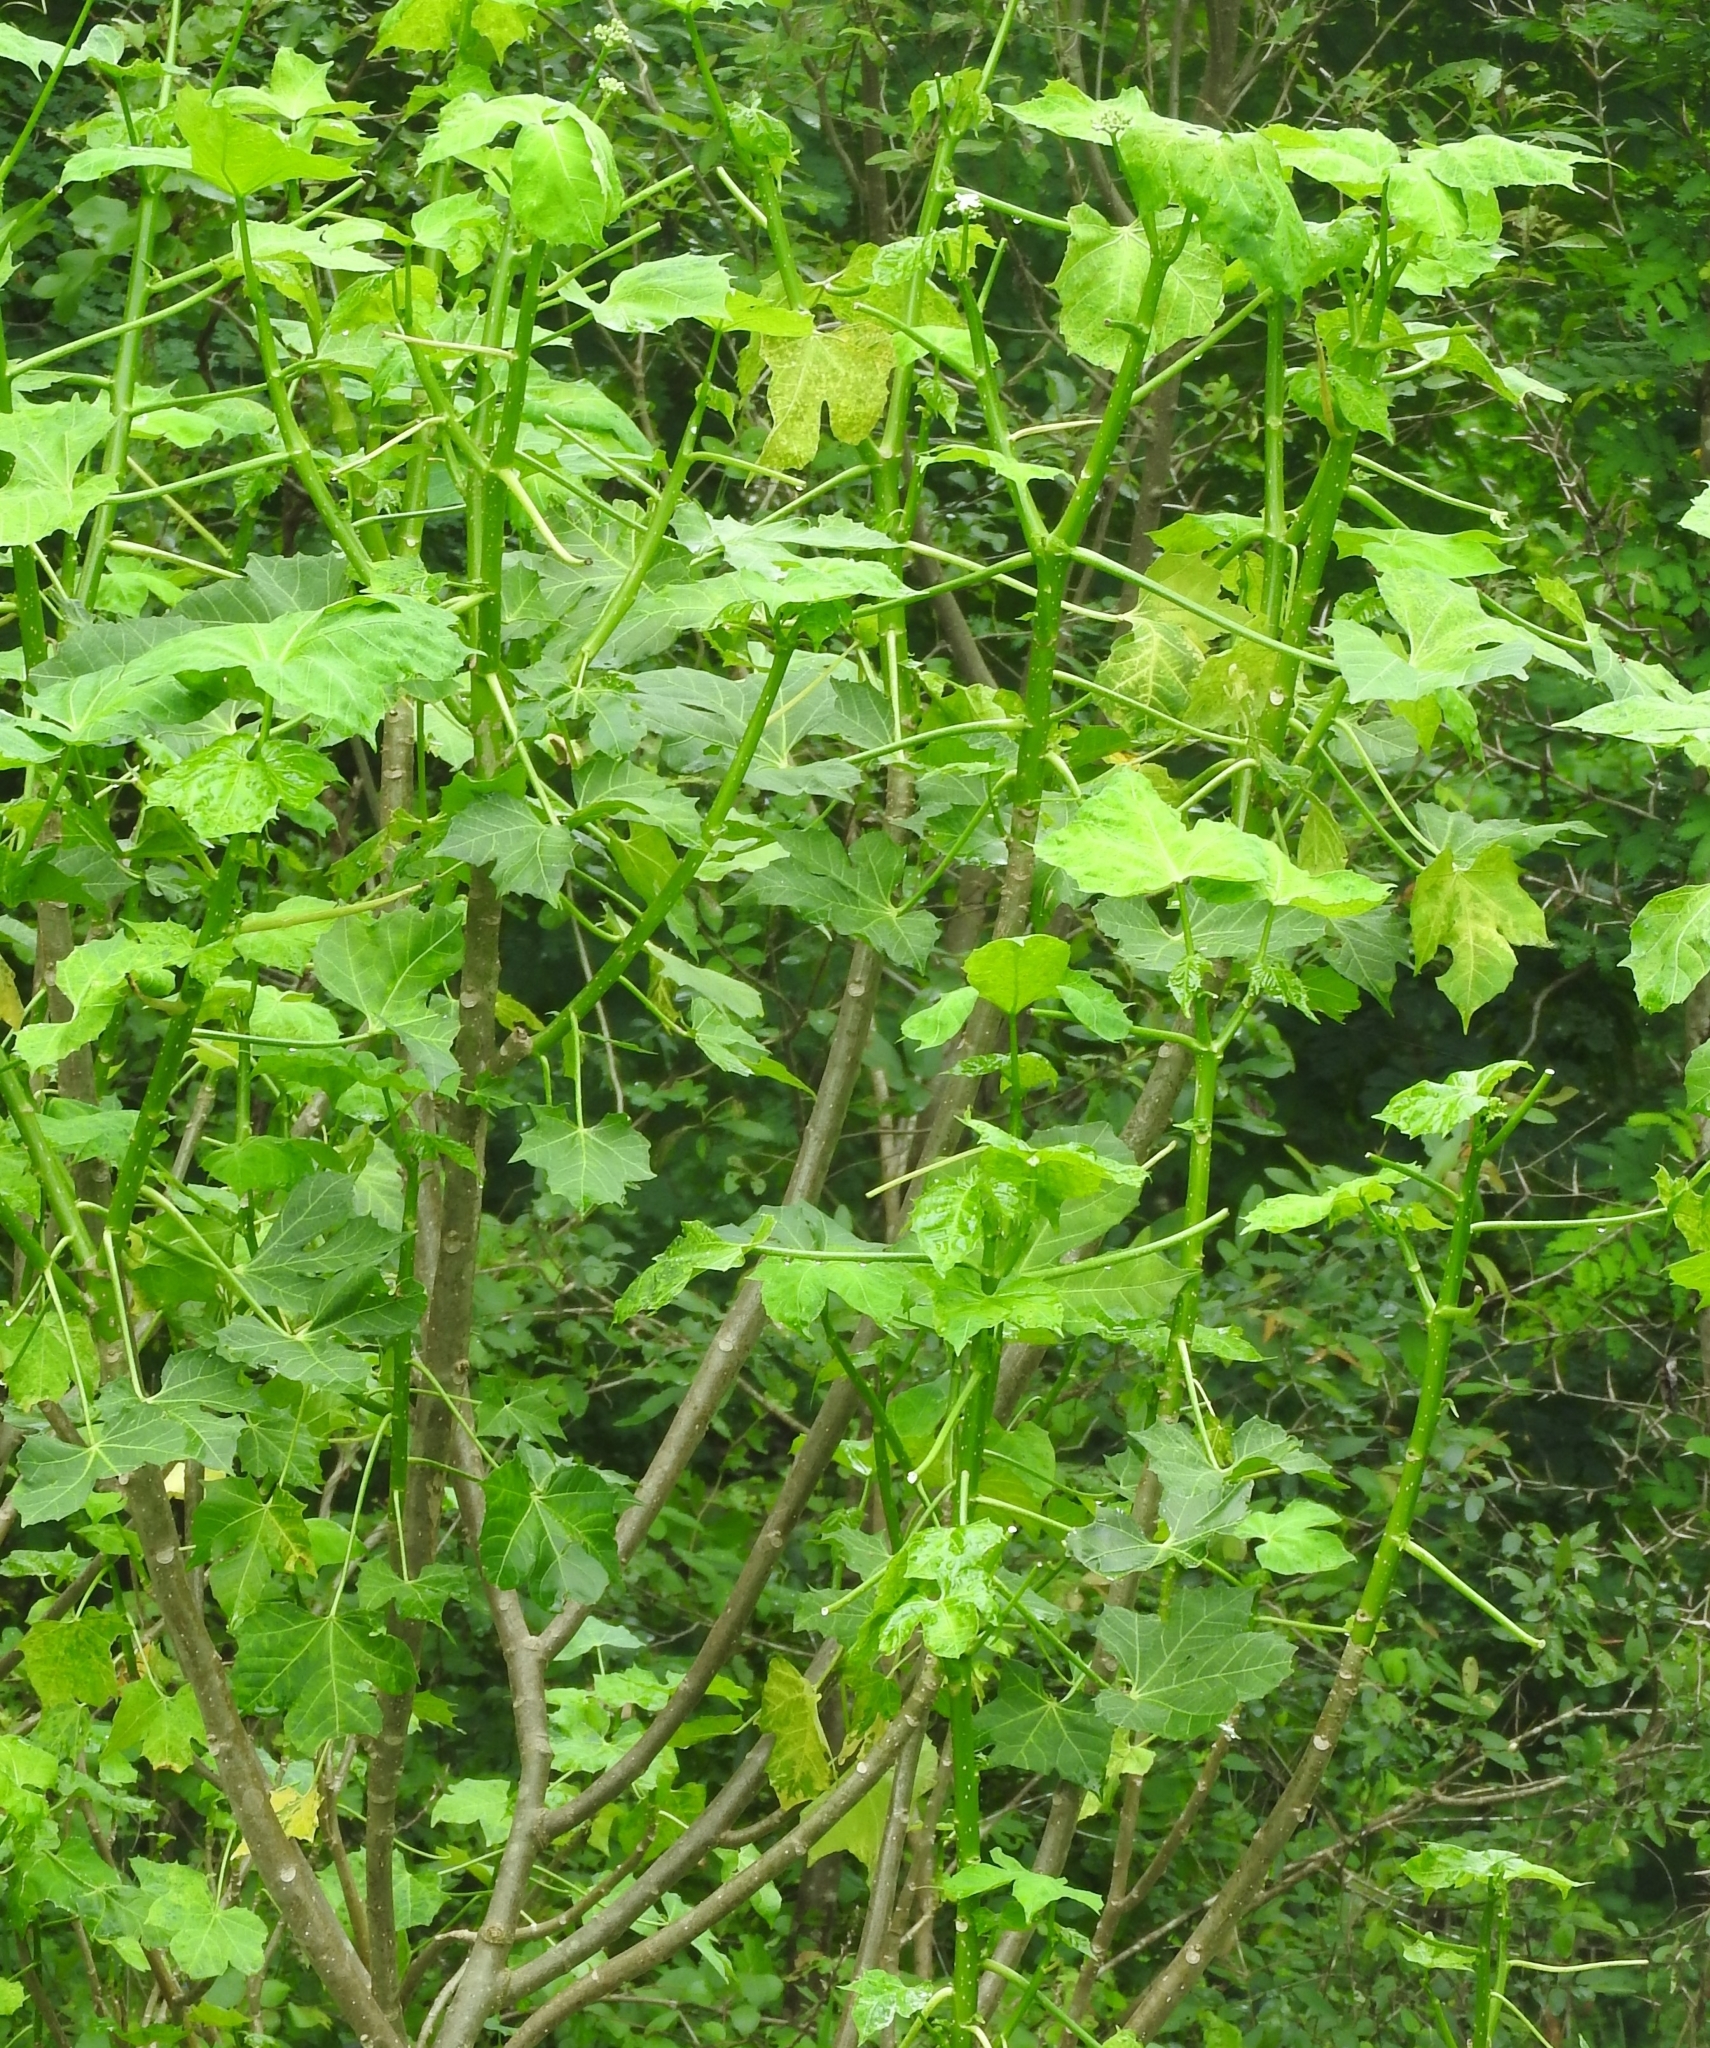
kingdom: Plantae
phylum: Tracheophyta
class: Magnoliopsida
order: Malpighiales
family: Euphorbiaceae
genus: Cnidoscolus
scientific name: Cnidoscolus aconitifolius
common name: Cabbage-star
